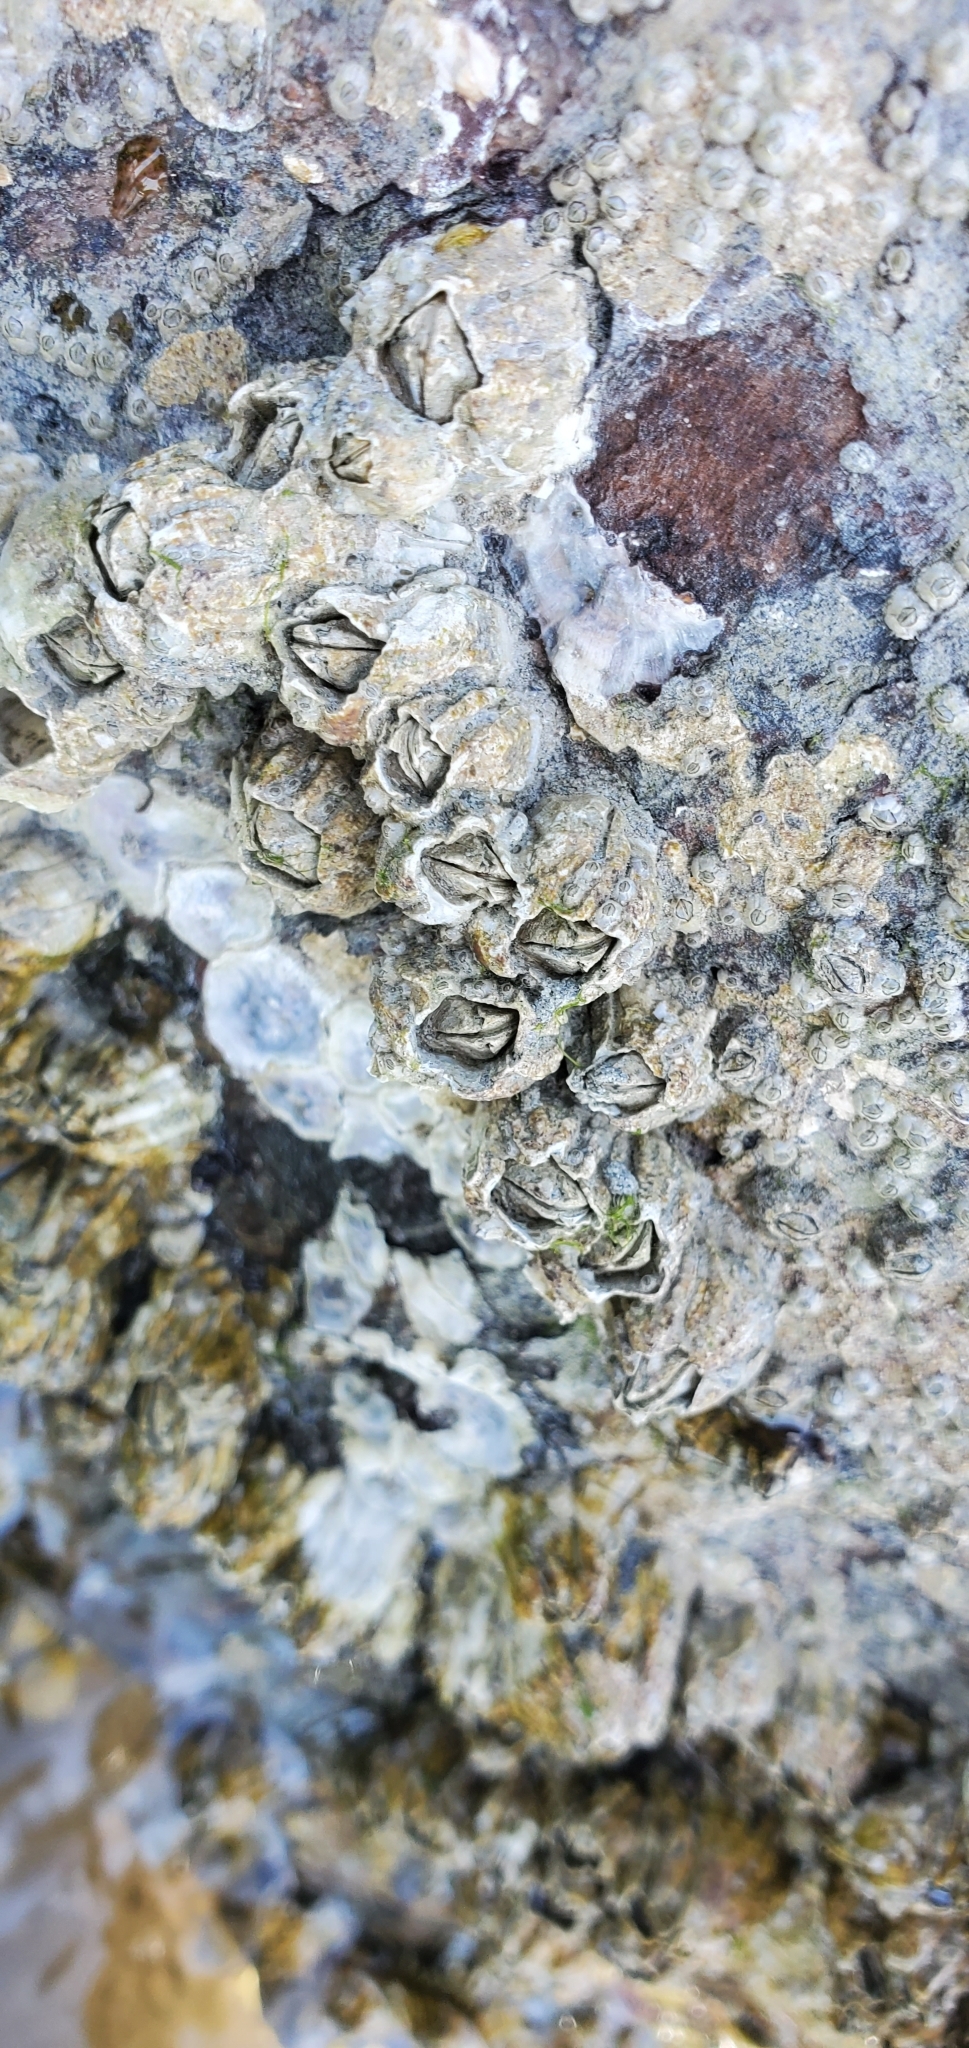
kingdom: Animalia
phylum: Arthropoda
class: Maxillopoda
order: Sessilia
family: Balanidae
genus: Balanus
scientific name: Balanus glandula
